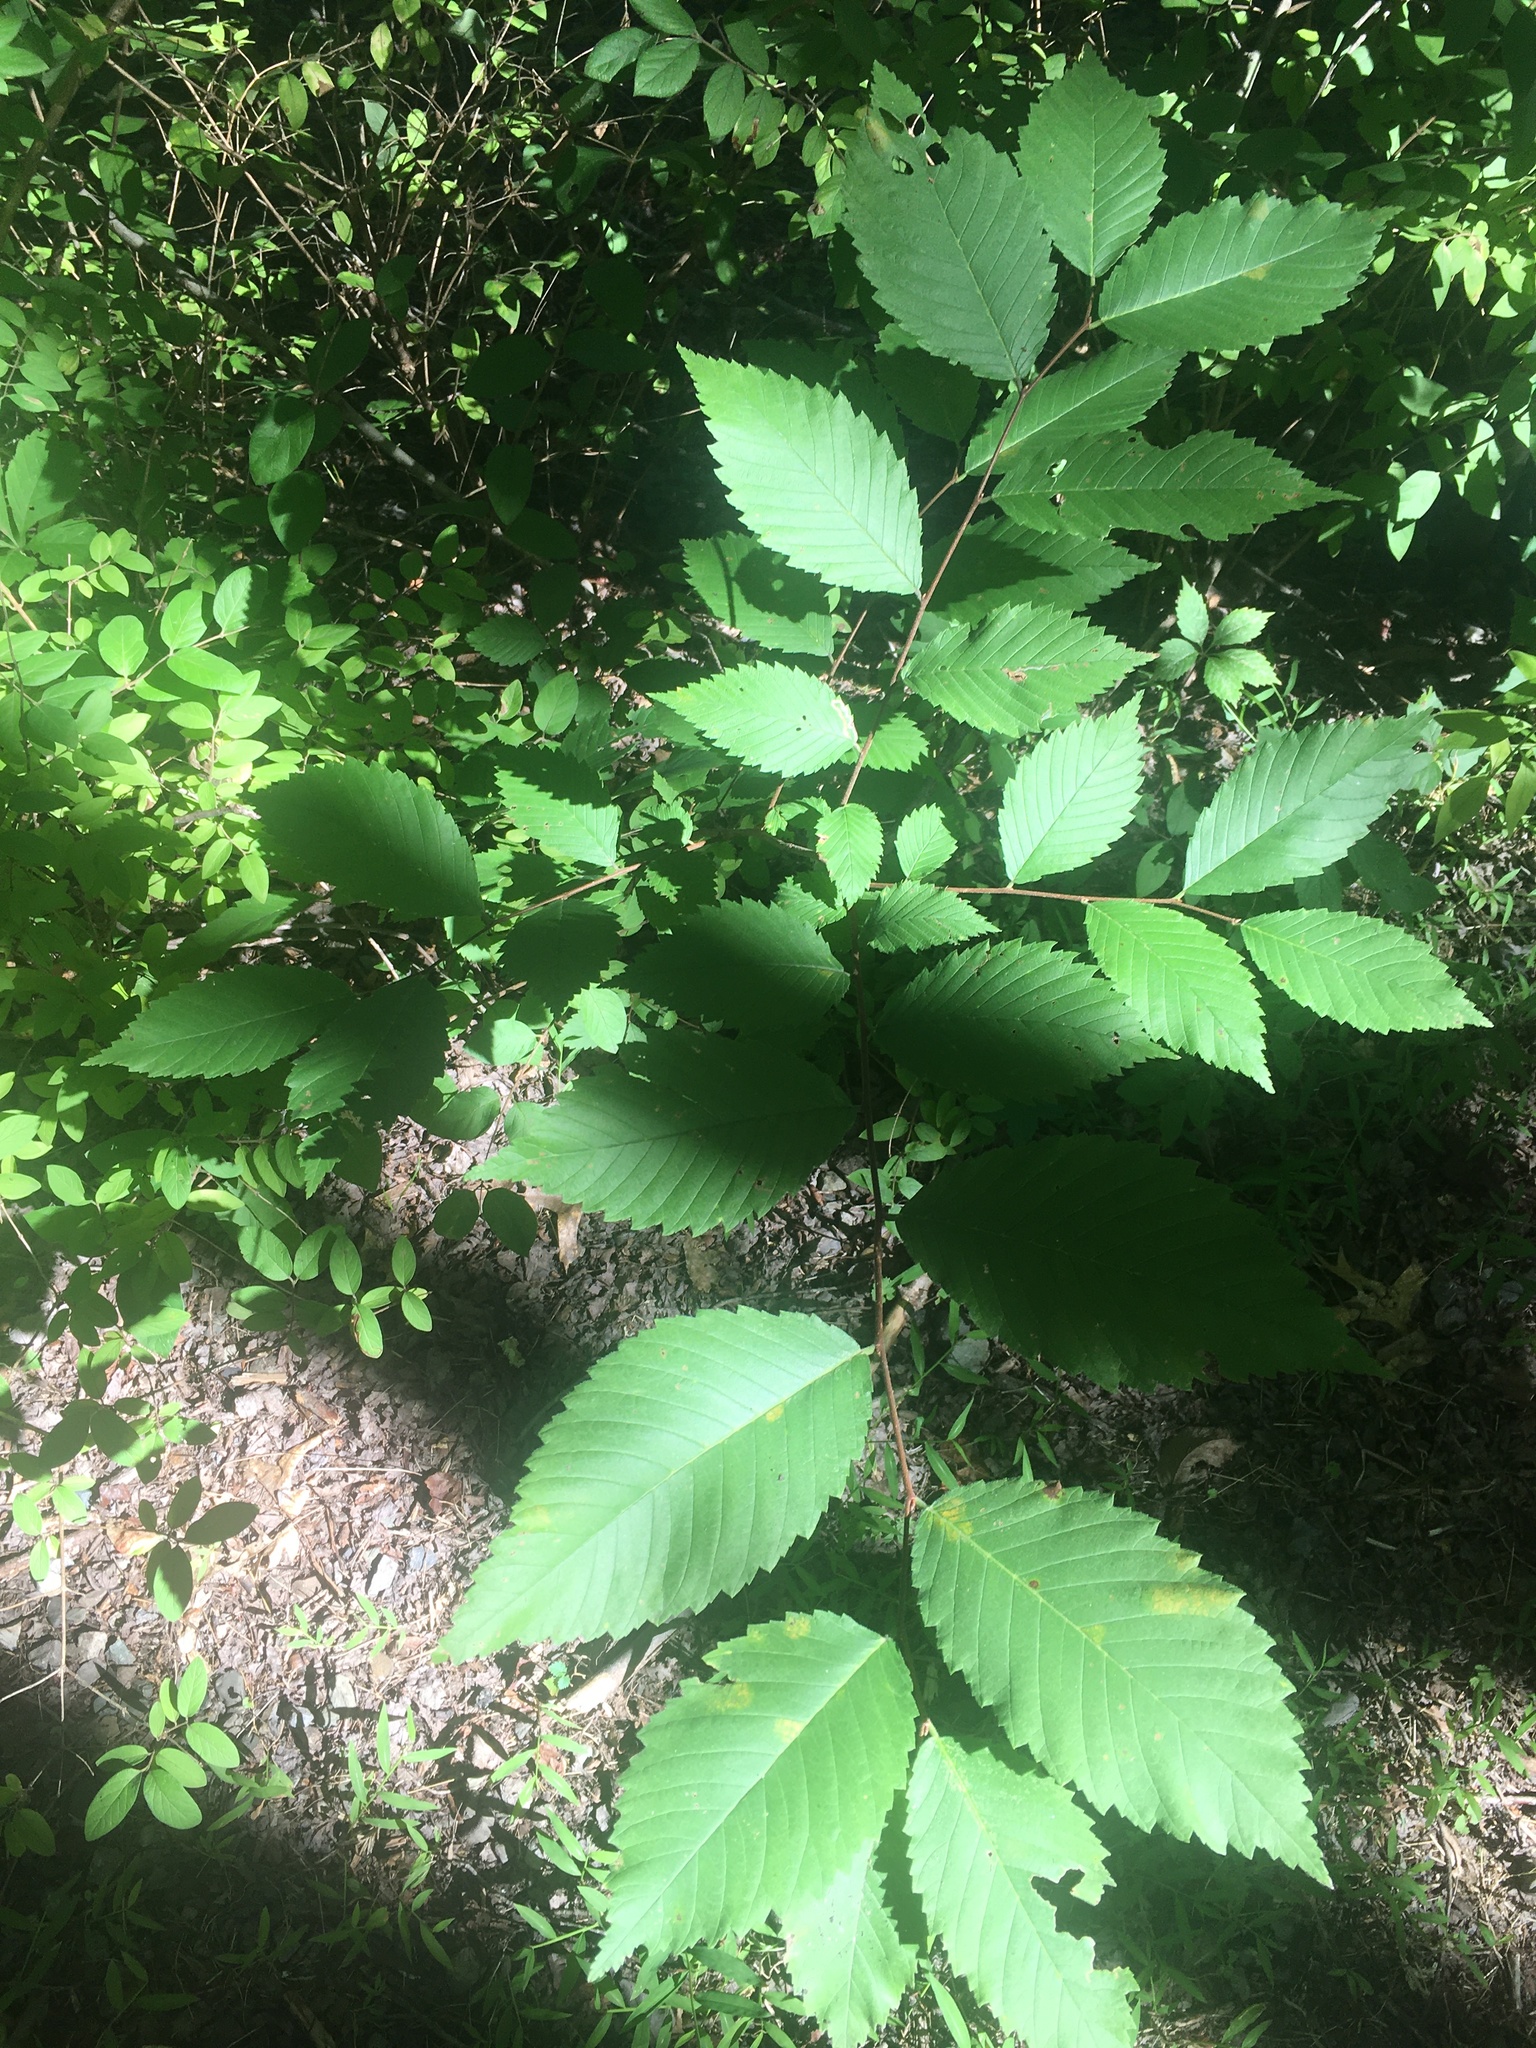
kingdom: Plantae
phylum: Tracheophyta
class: Magnoliopsida
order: Rosales
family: Ulmaceae
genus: Ulmus
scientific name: Ulmus americana
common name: American elm
